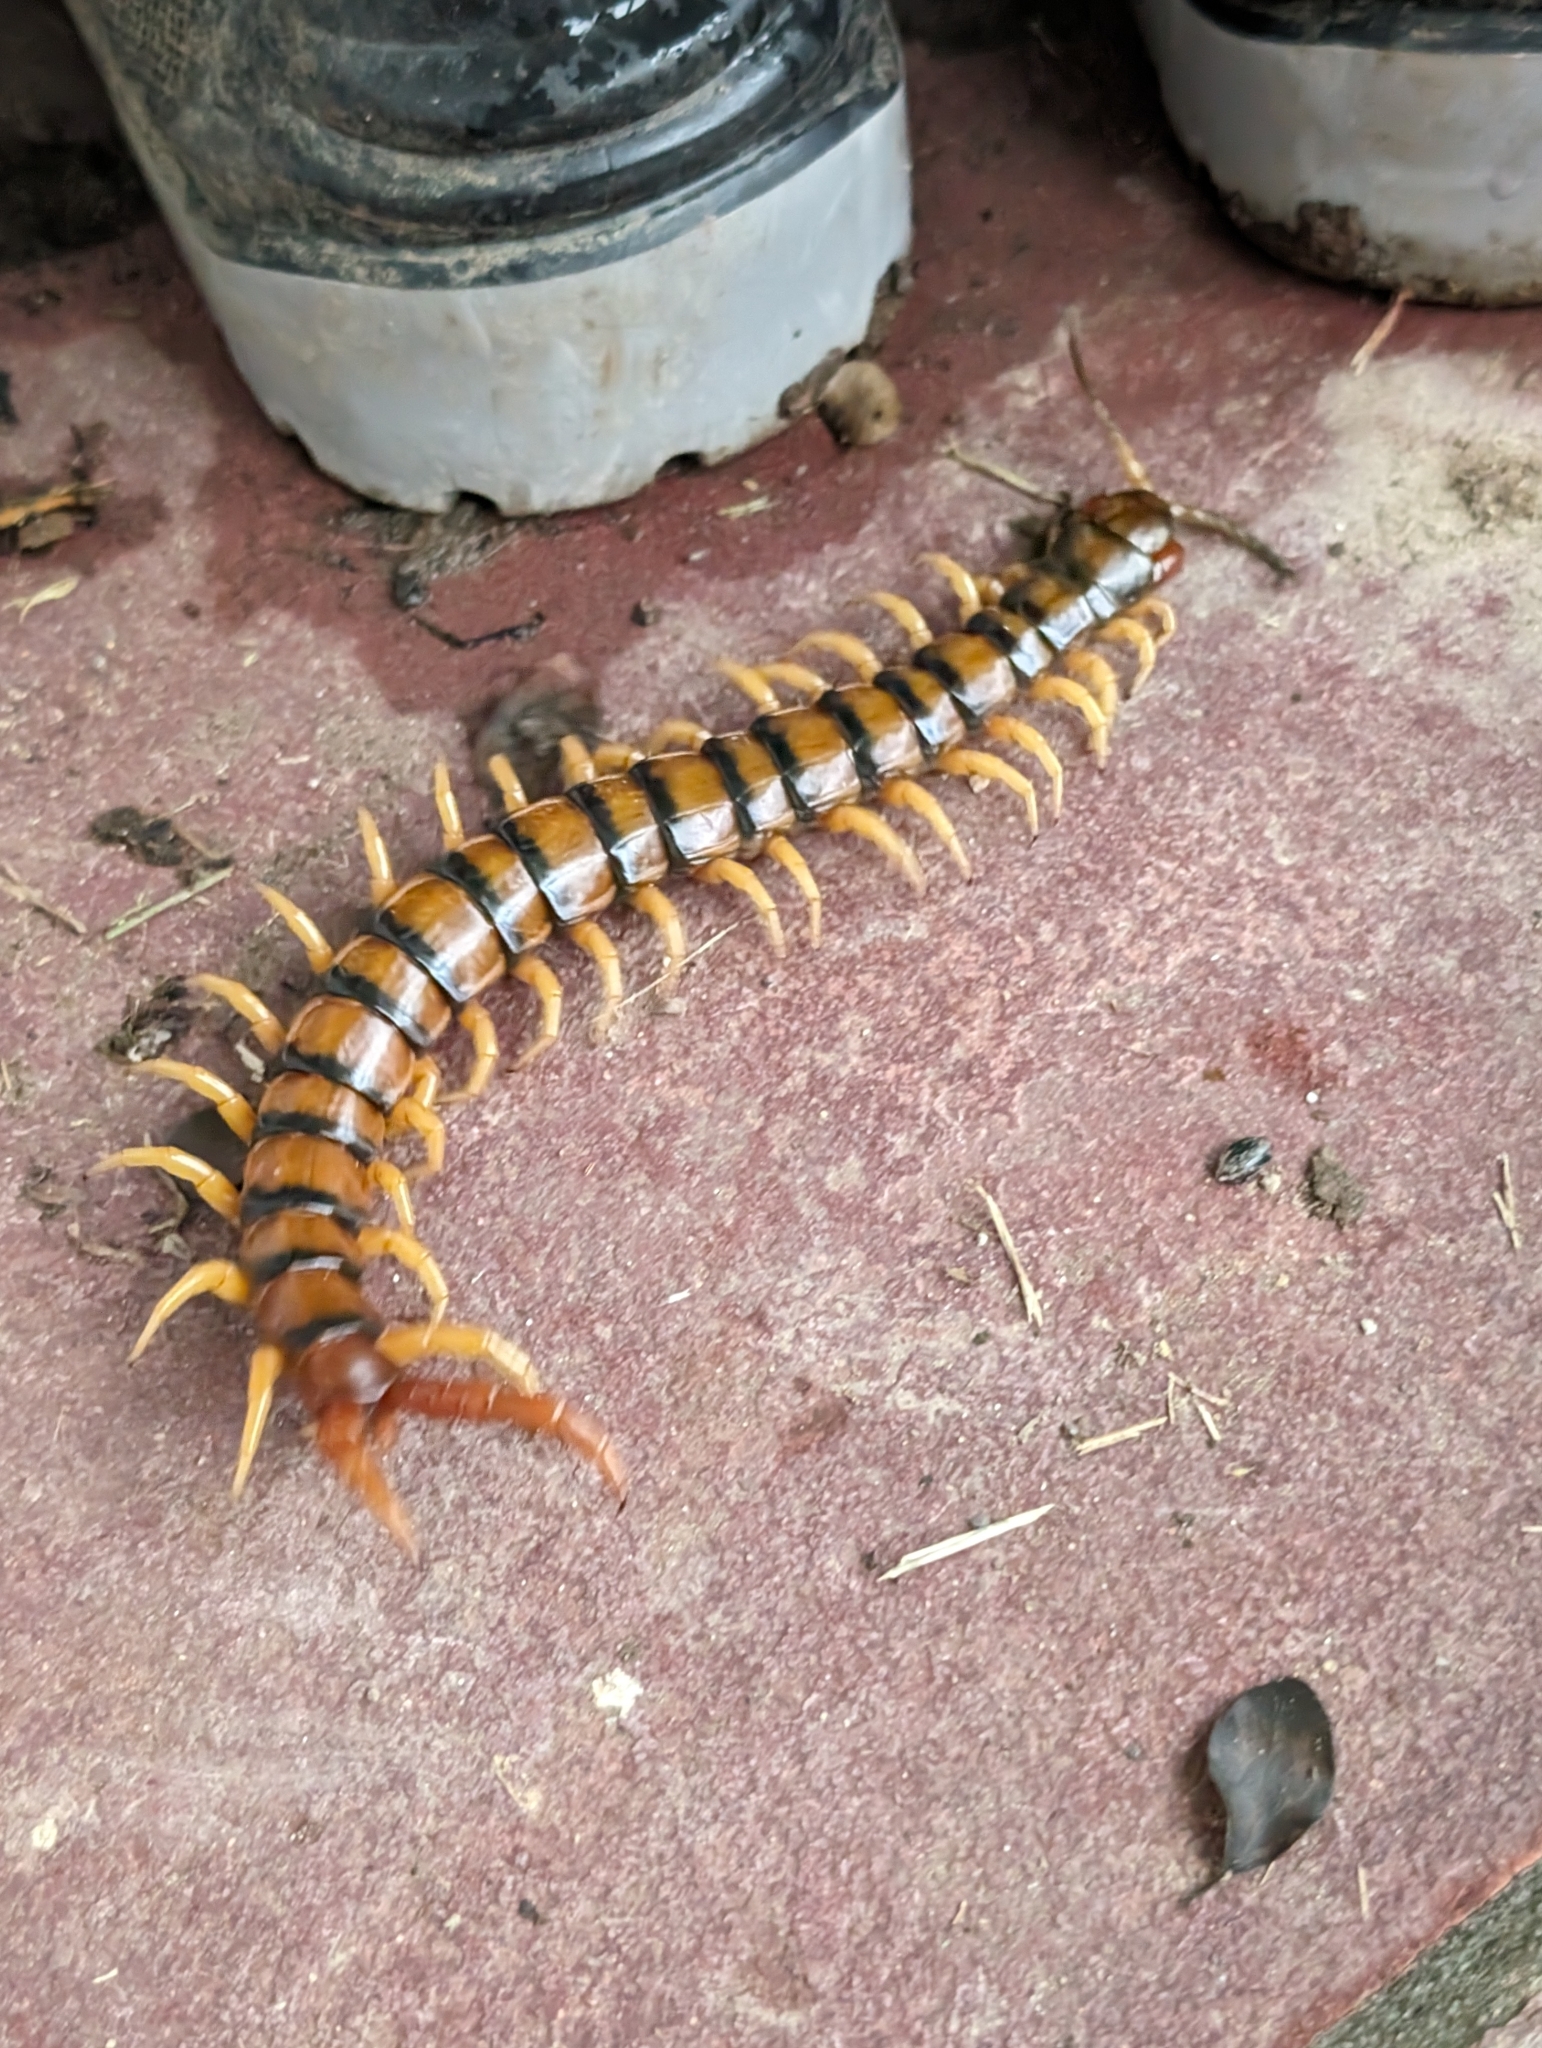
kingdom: Animalia
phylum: Arthropoda
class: Chilopoda
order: Scolopendromorpha
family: Scolopendridae
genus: Ethmostigmus
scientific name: Ethmostigmus rubripes
